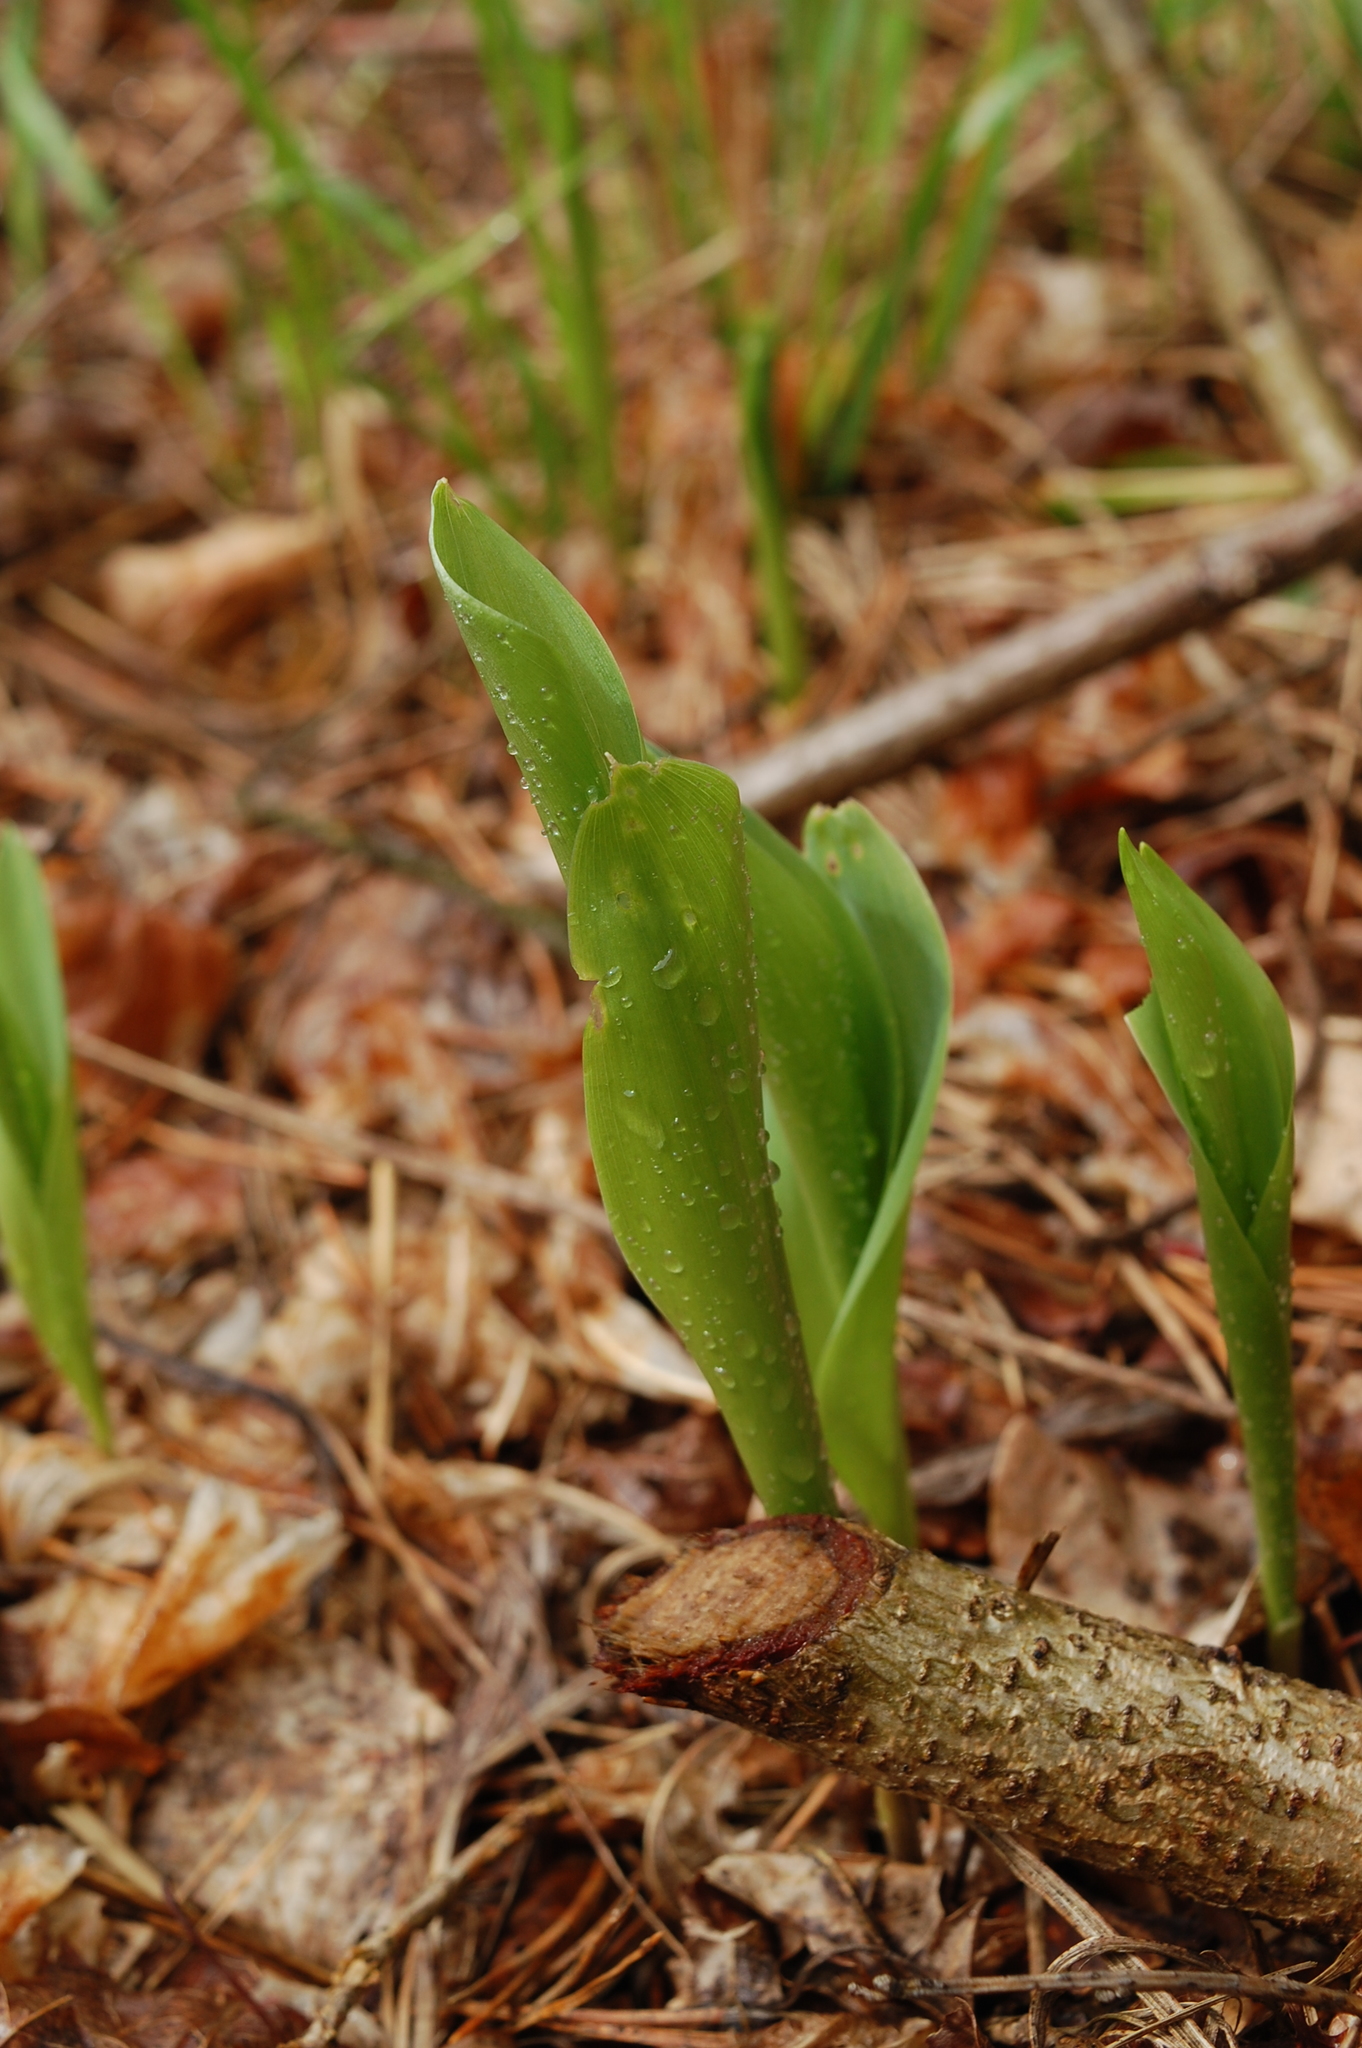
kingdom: Plantae
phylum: Tracheophyta
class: Liliopsida
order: Asparagales
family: Asparagaceae
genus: Convallaria
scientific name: Convallaria majalis
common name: Lily-of-the-valley
